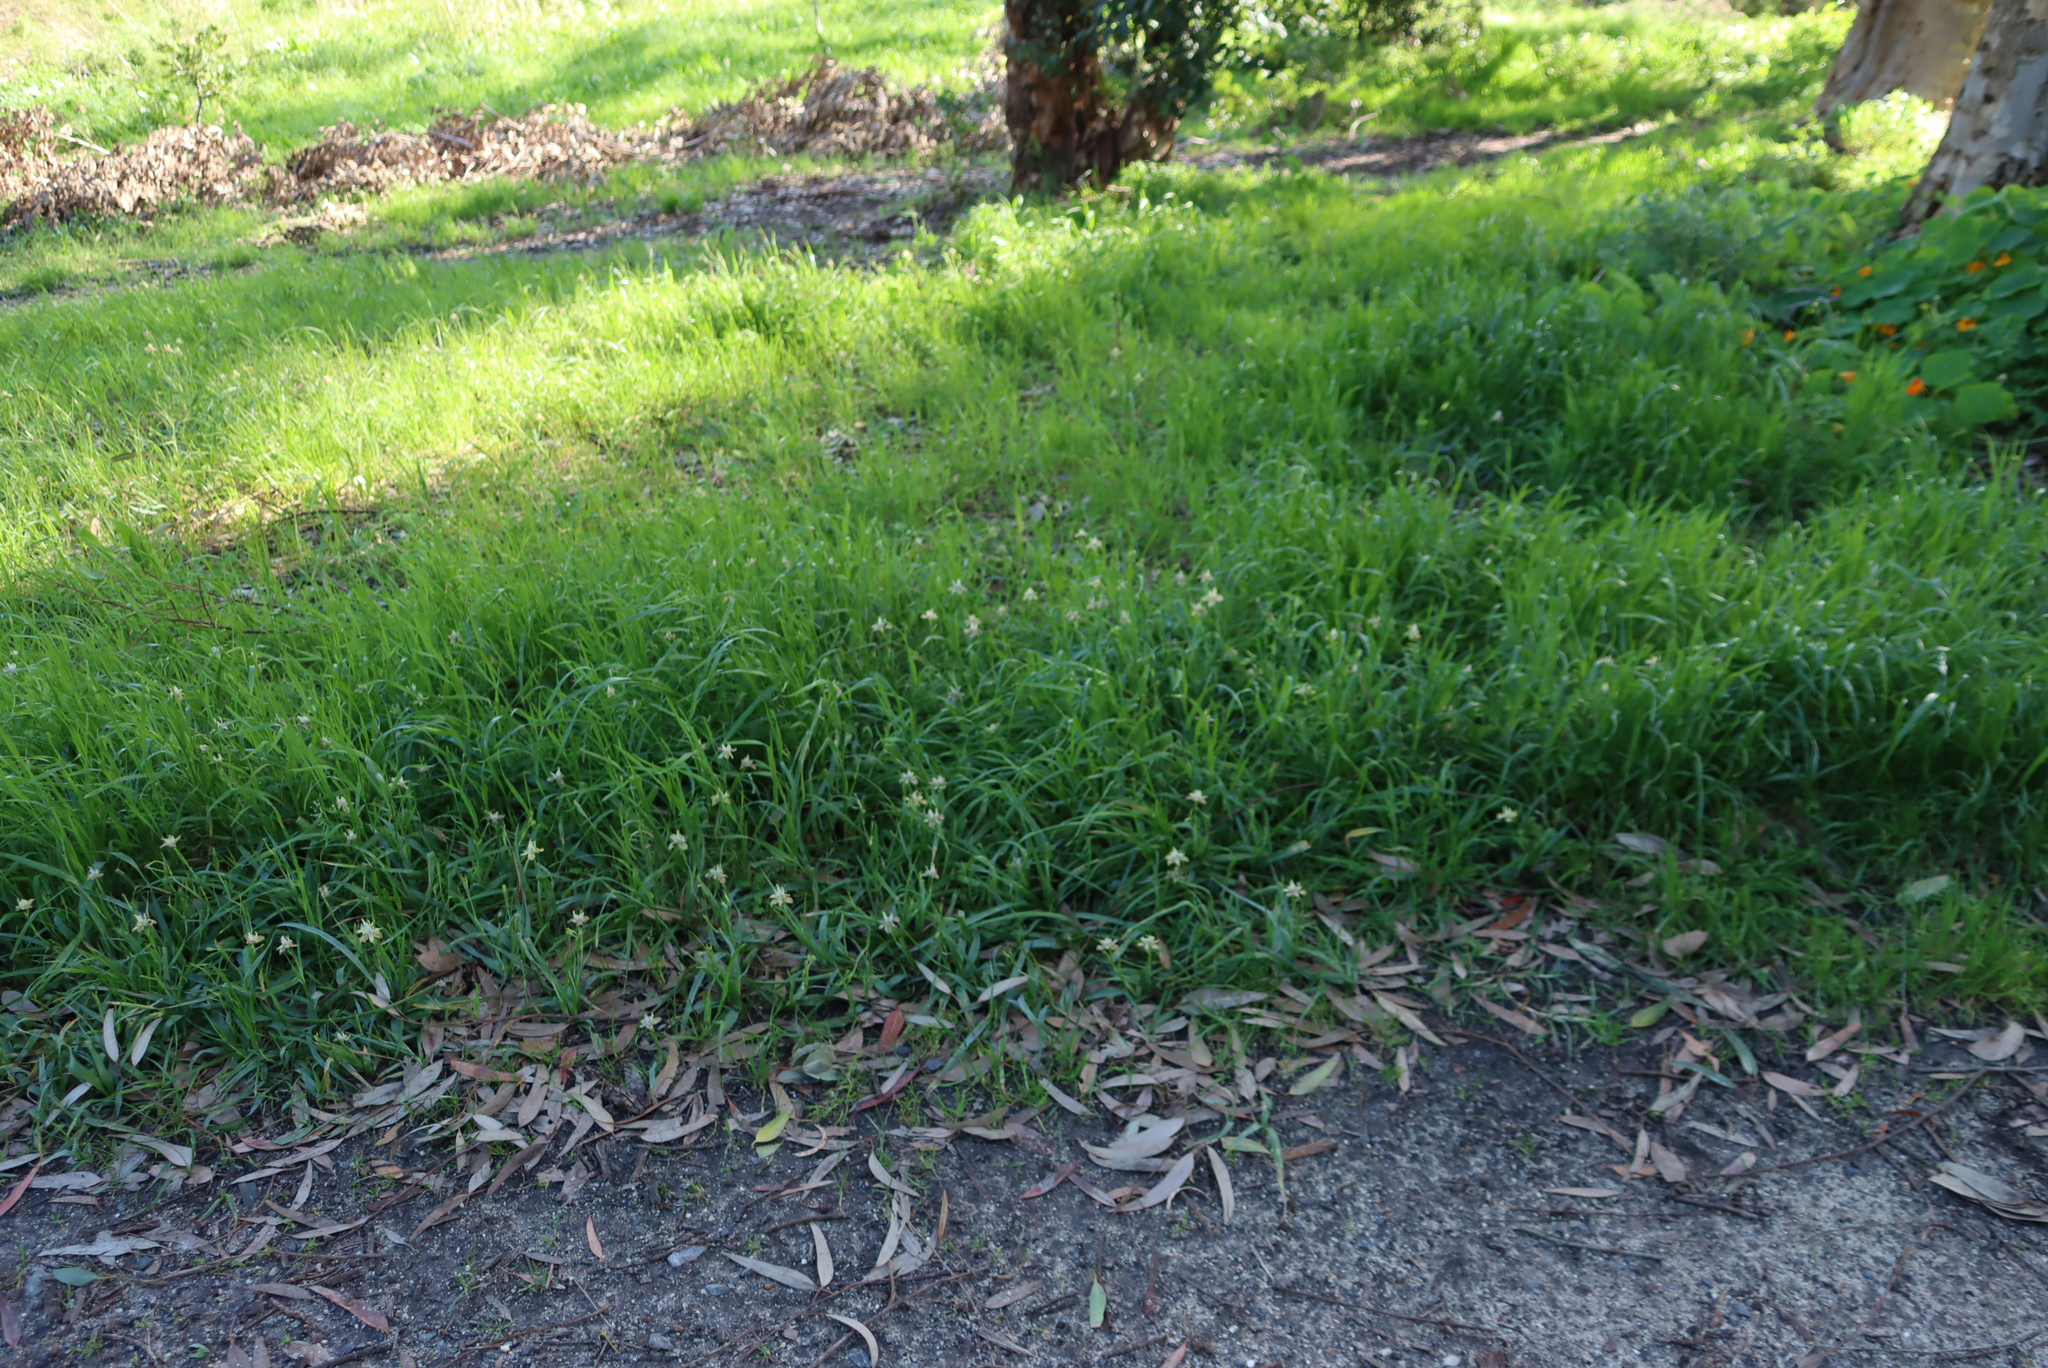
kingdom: Plantae
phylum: Tracheophyta
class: Liliopsida
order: Asparagales
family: Iridaceae
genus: Moraea
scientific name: Moraea vegeta
